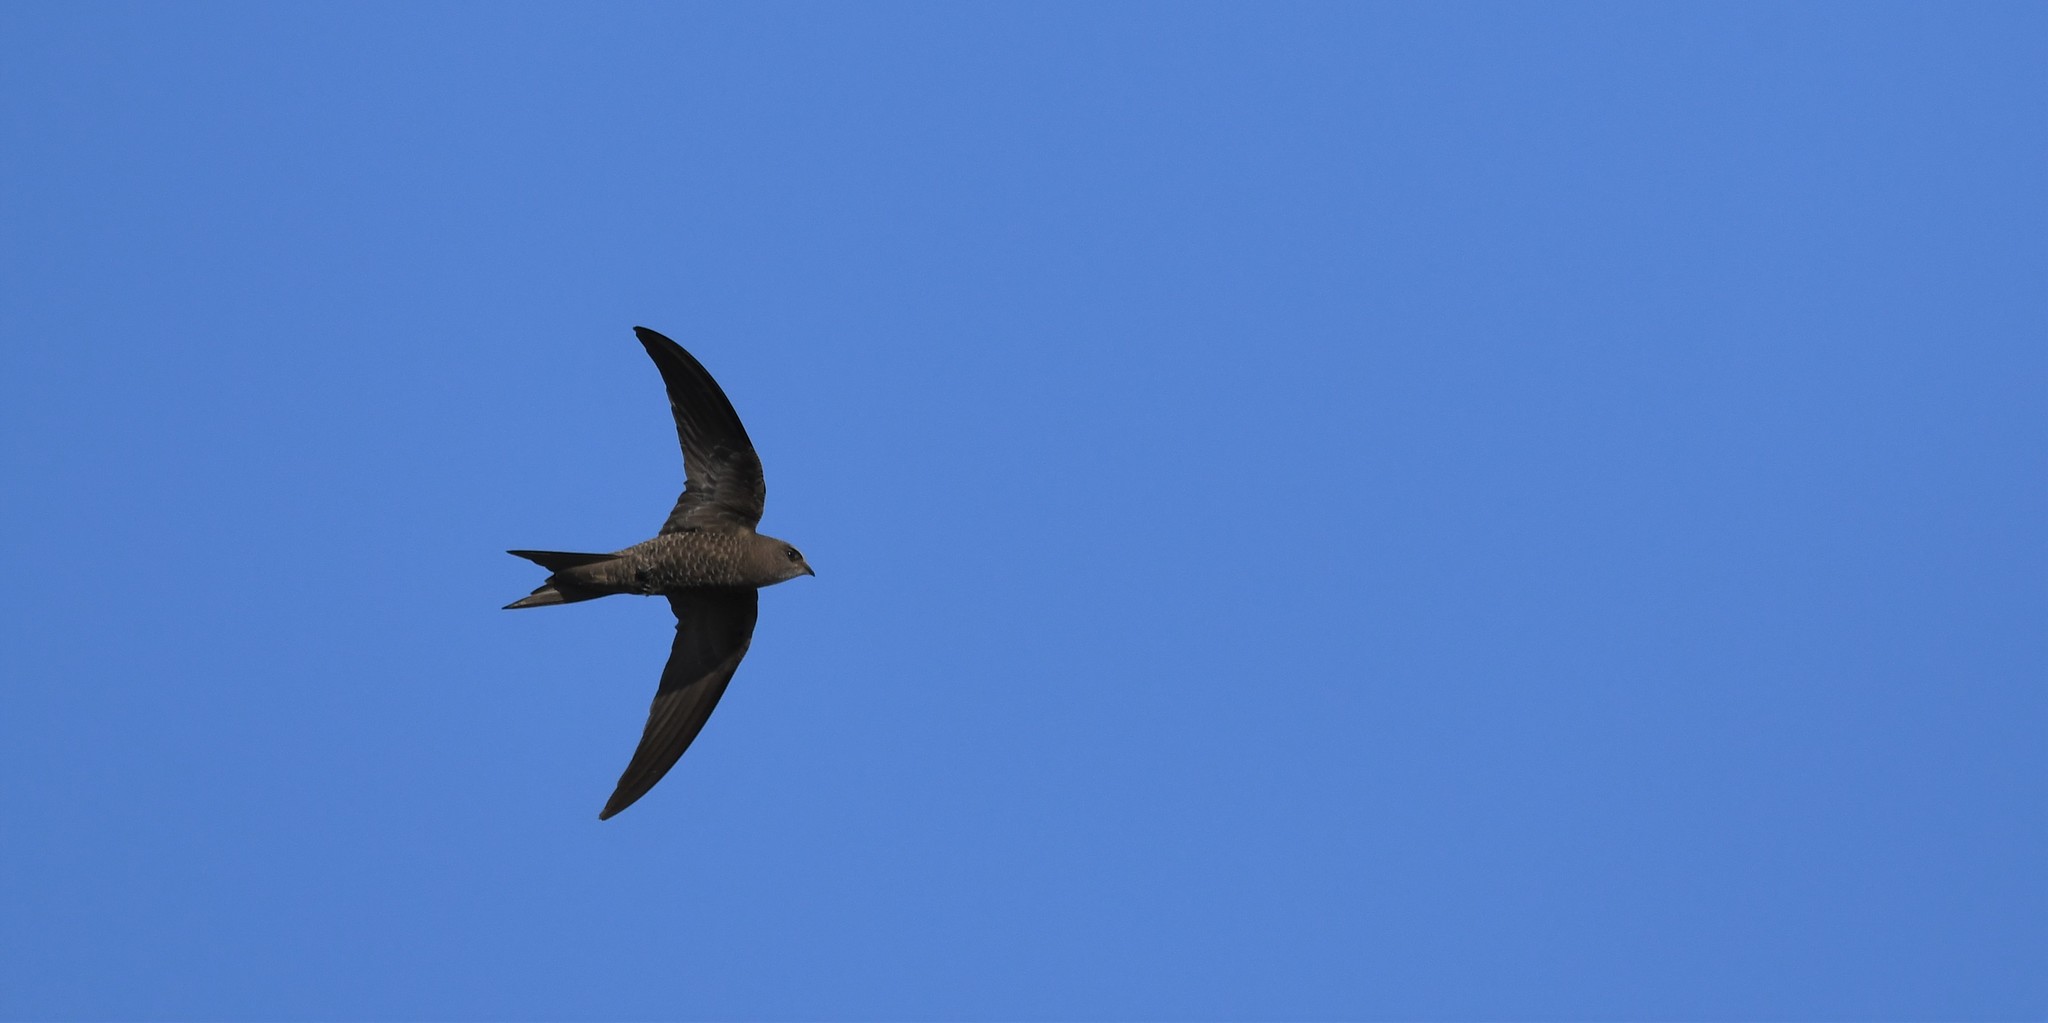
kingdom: Animalia
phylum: Chordata
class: Aves
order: Apodiformes
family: Apodidae
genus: Apus
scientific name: Apus pallidus
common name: Pallid swift
